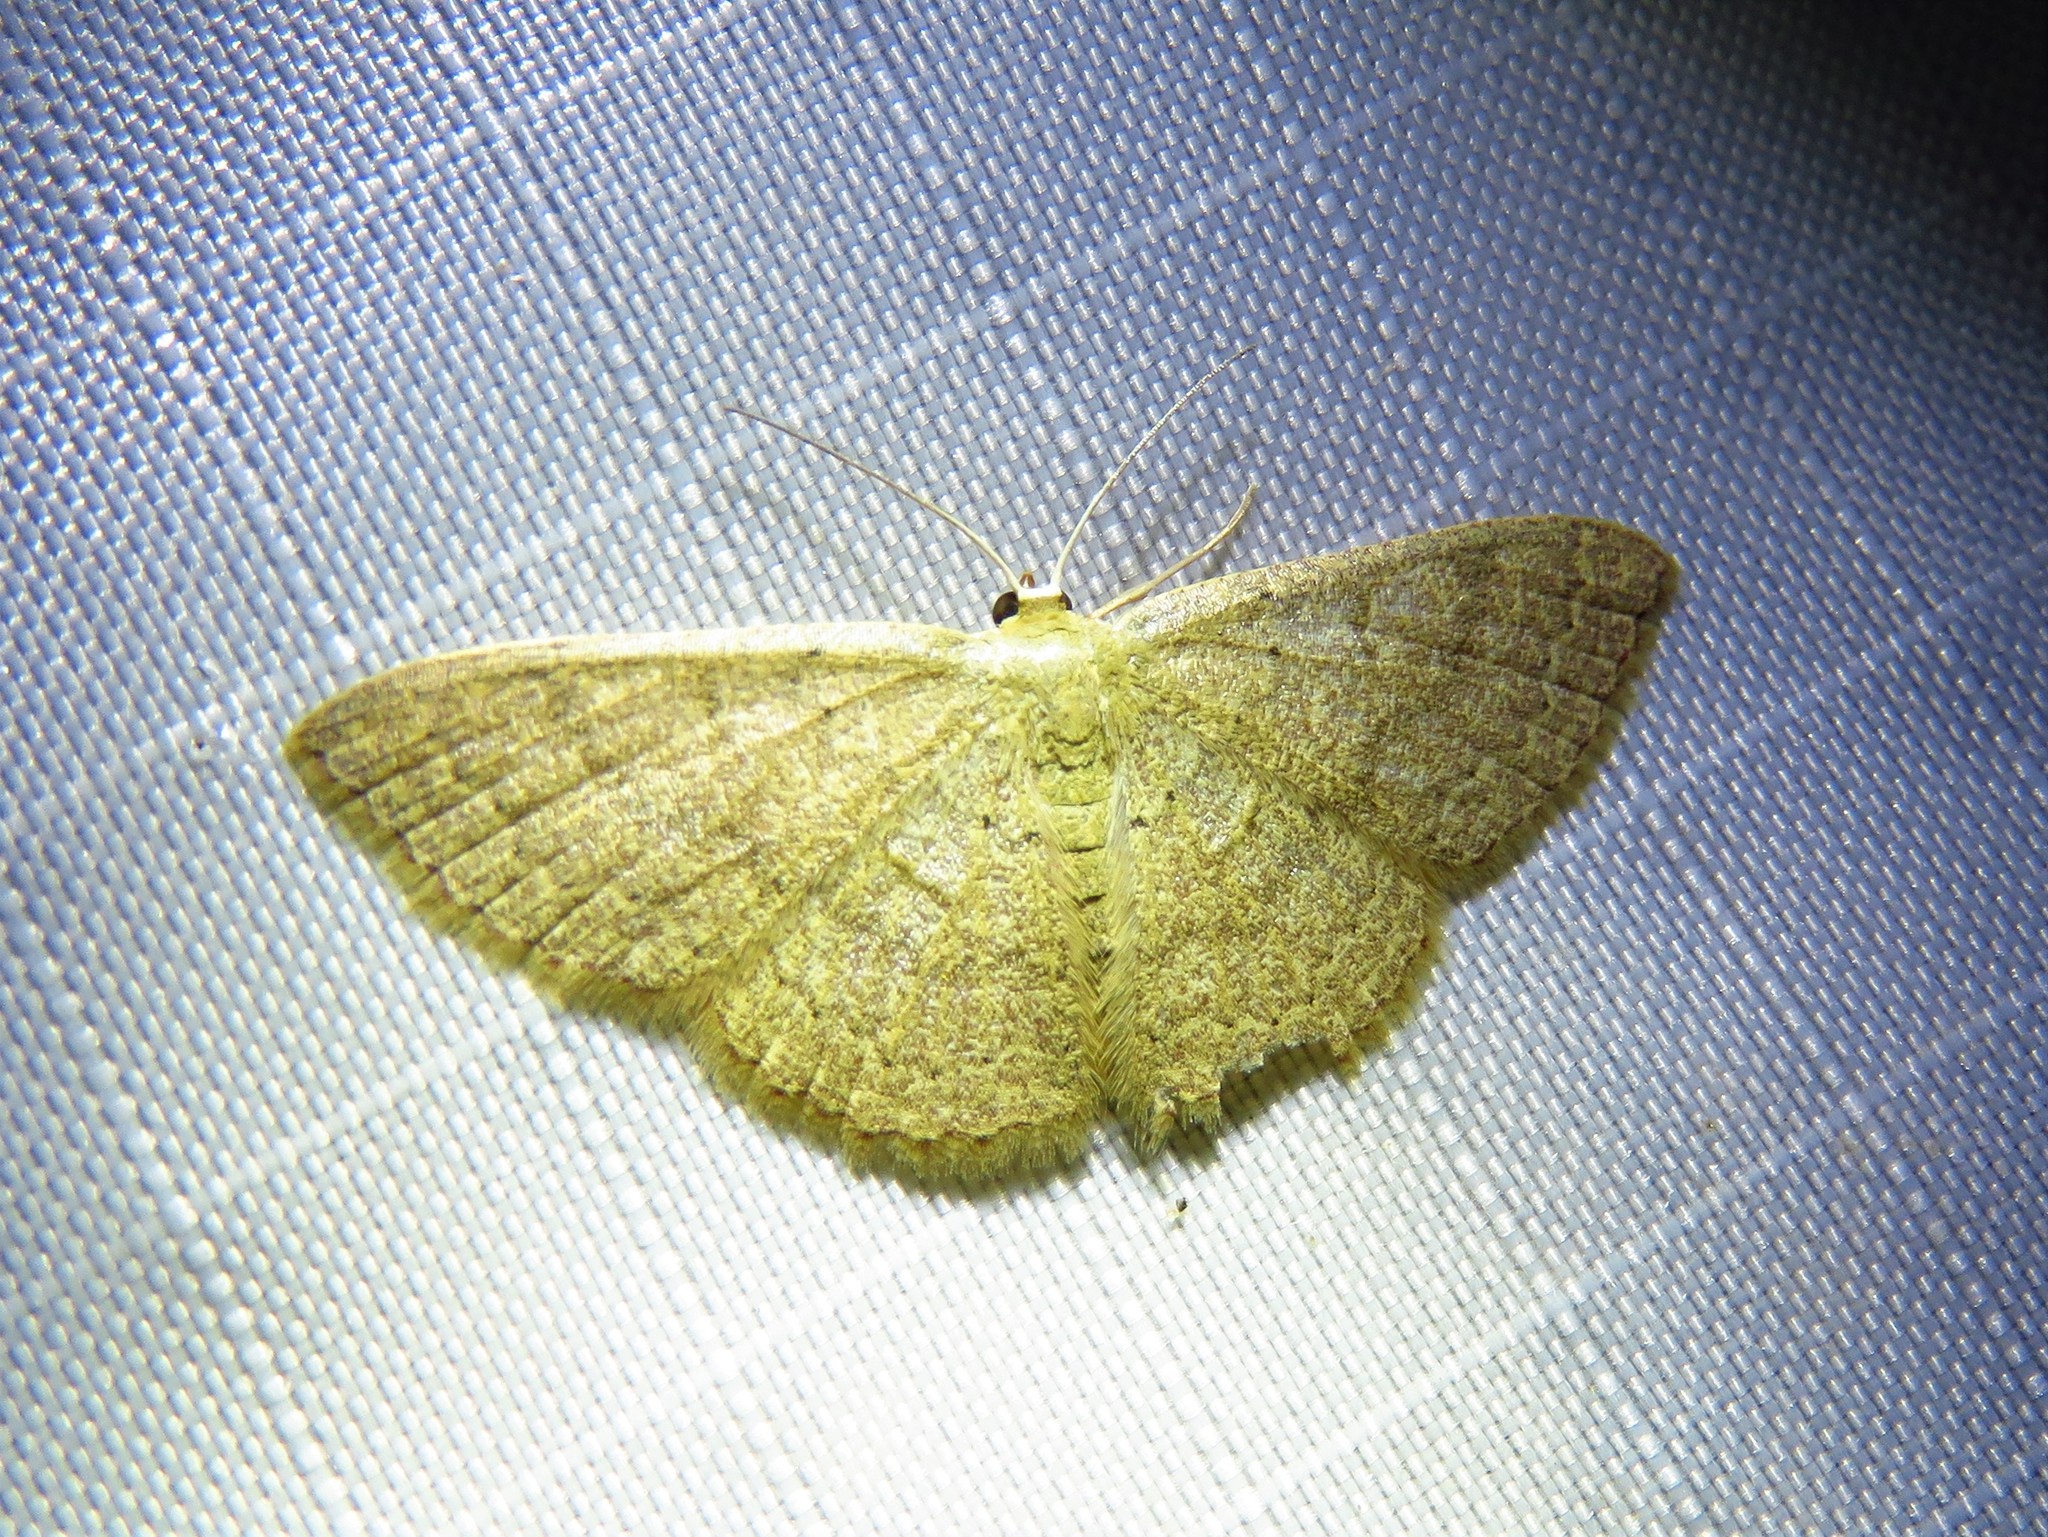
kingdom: Animalia
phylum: Arthropoda
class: Insecta
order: Lepidoptera
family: Geometridae
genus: Pleuroprucha
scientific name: Pleuroprucha insulsaria
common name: Common tan wave
